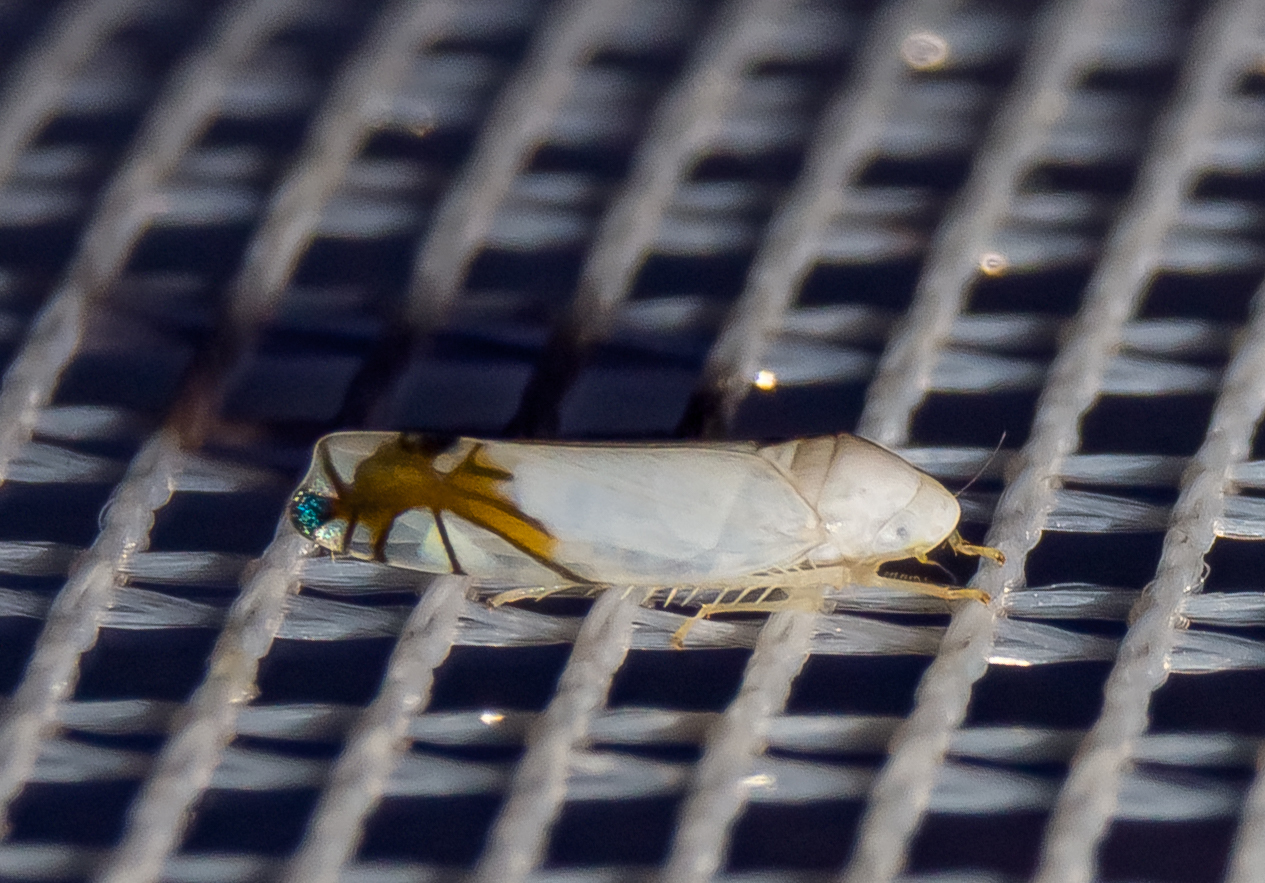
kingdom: Animalia
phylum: Arthropoda
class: Insecta
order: Hemiptera
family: Cicadellidae
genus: Aguriahana
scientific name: Aguriahana stellulata
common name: Leafhopper
